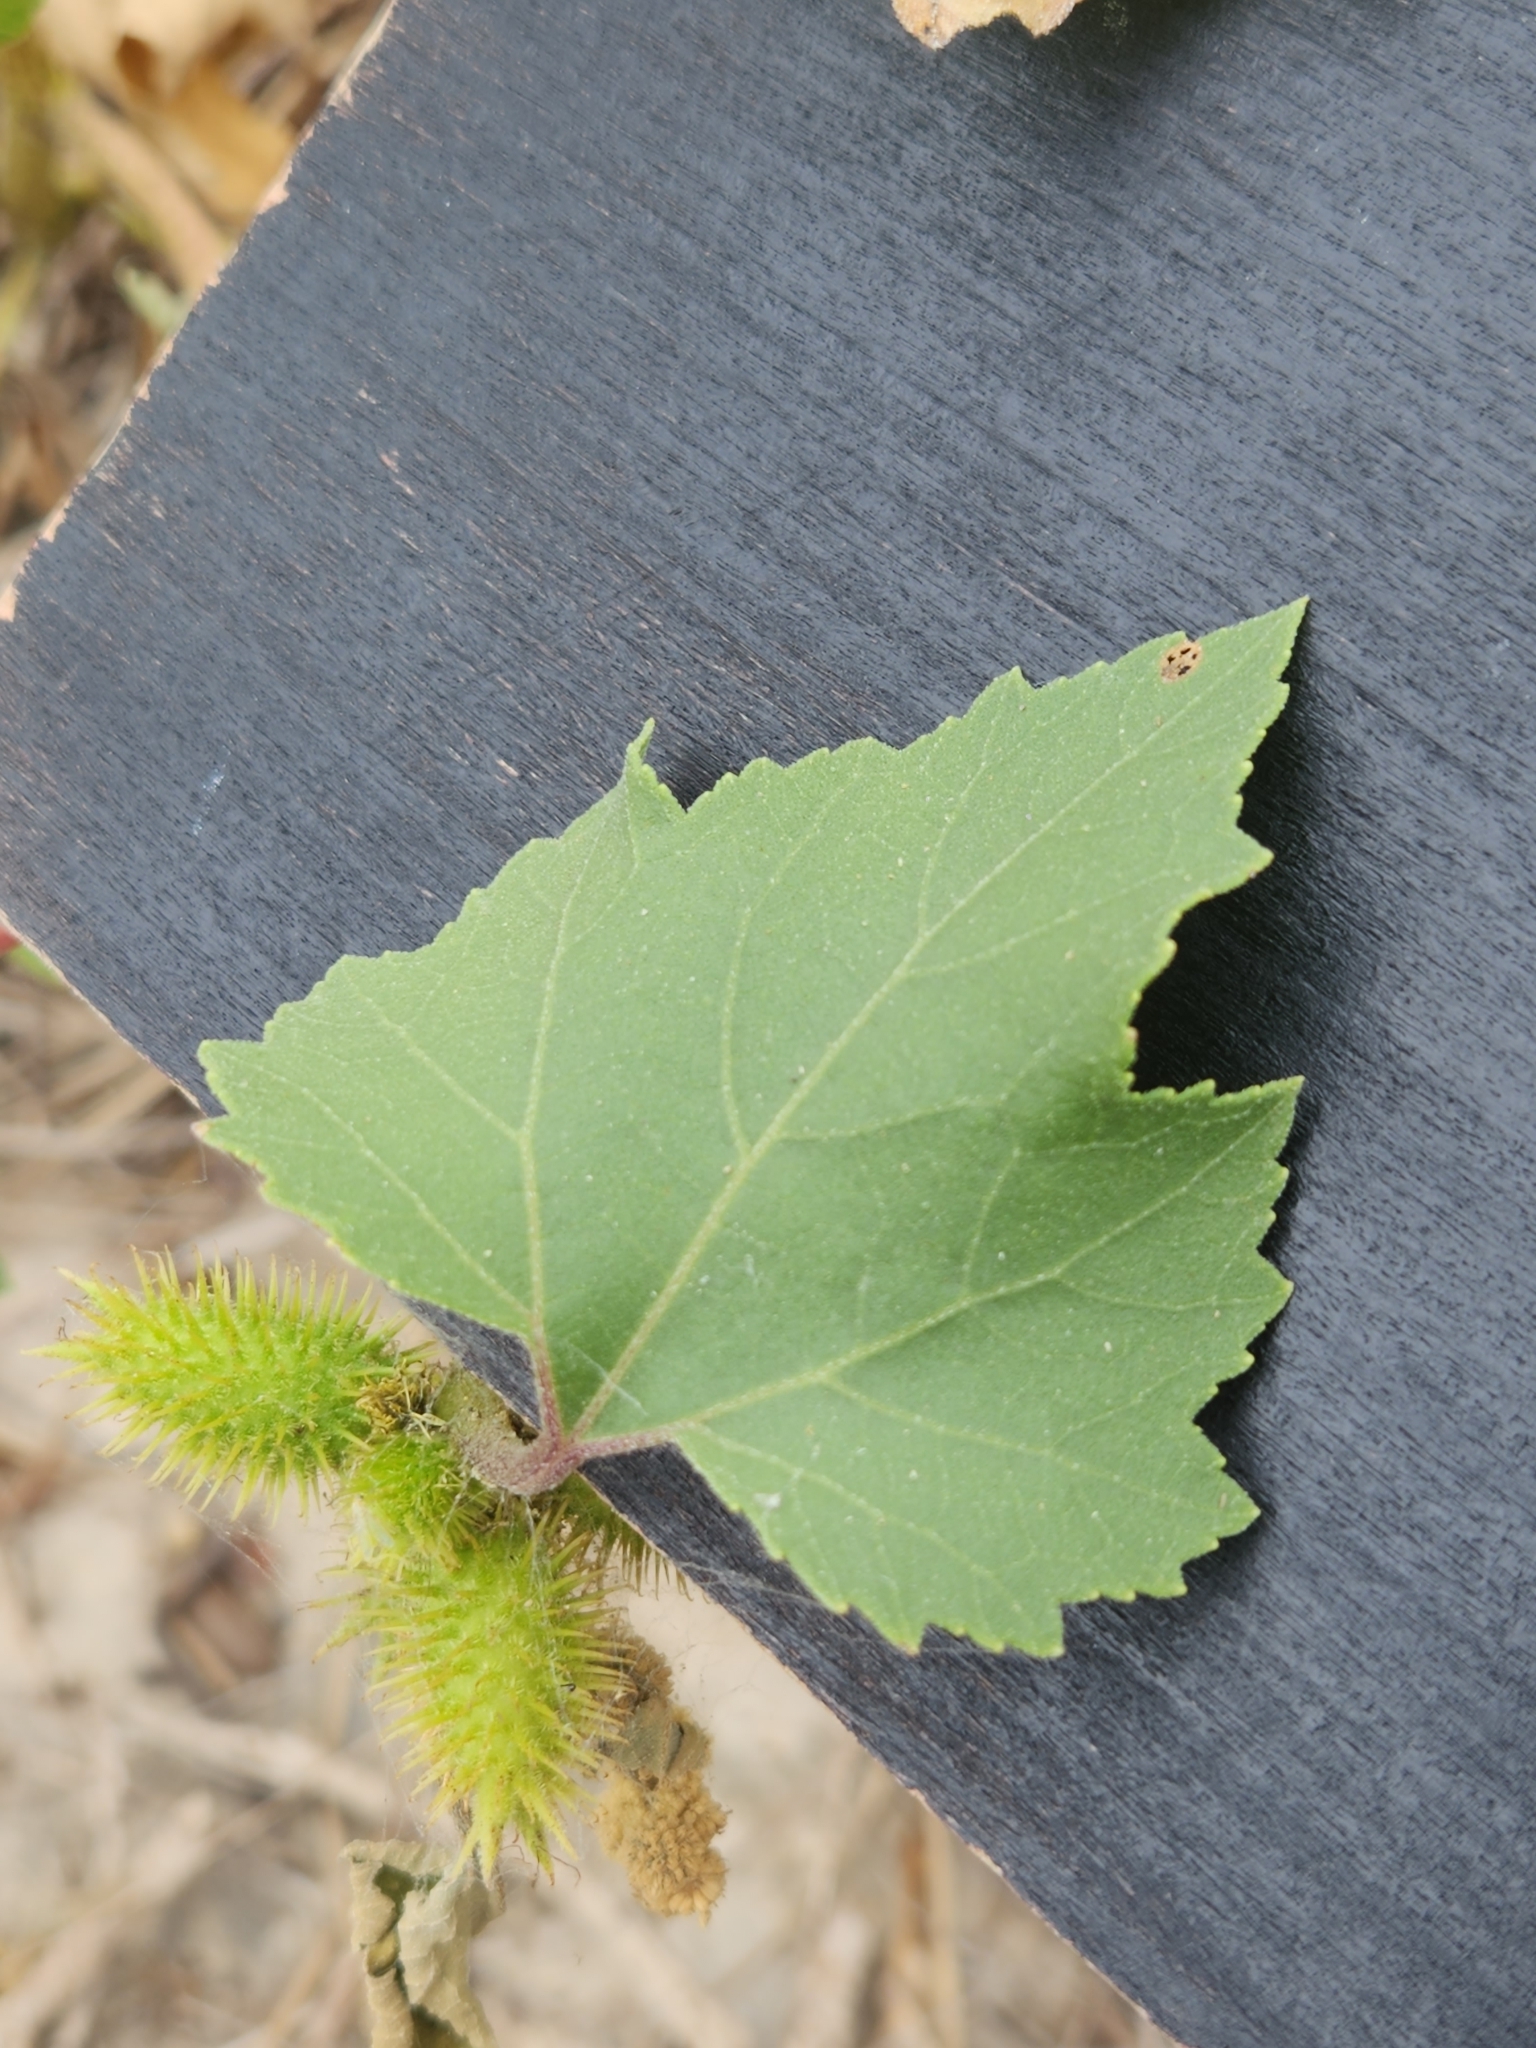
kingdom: Plantae
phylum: Tracheophyta
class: Magnoliopsida
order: Asterales
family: Asteraceae
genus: Xanthium
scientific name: Xanthium strumarium
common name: Rough cocklebur
